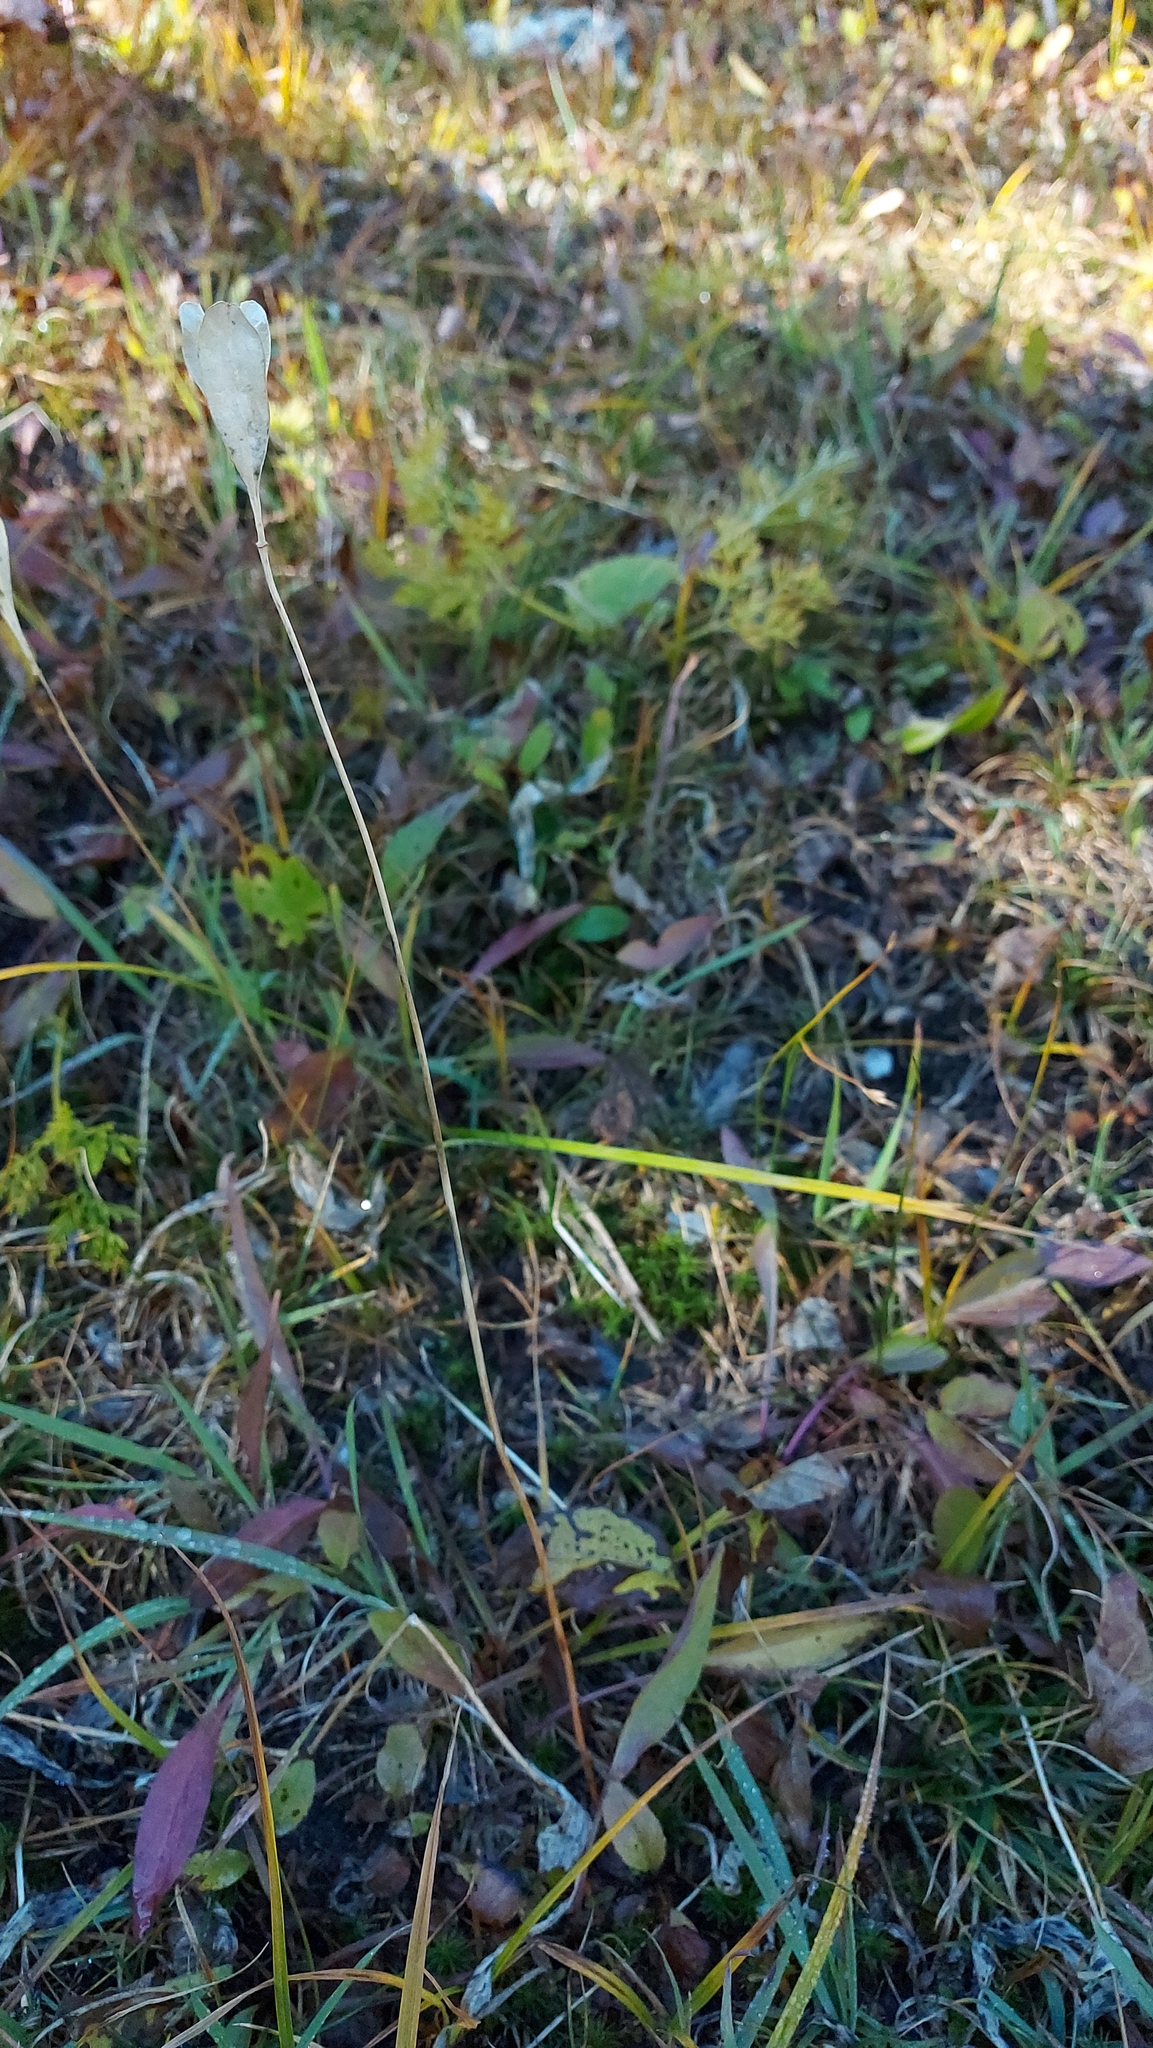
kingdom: Plantae
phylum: Tracheophyta
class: Liliopsida
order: Liliales
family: Liliaceae
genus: Erythronium
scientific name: Erythronium grandiflorum
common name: Avalanche-lily
